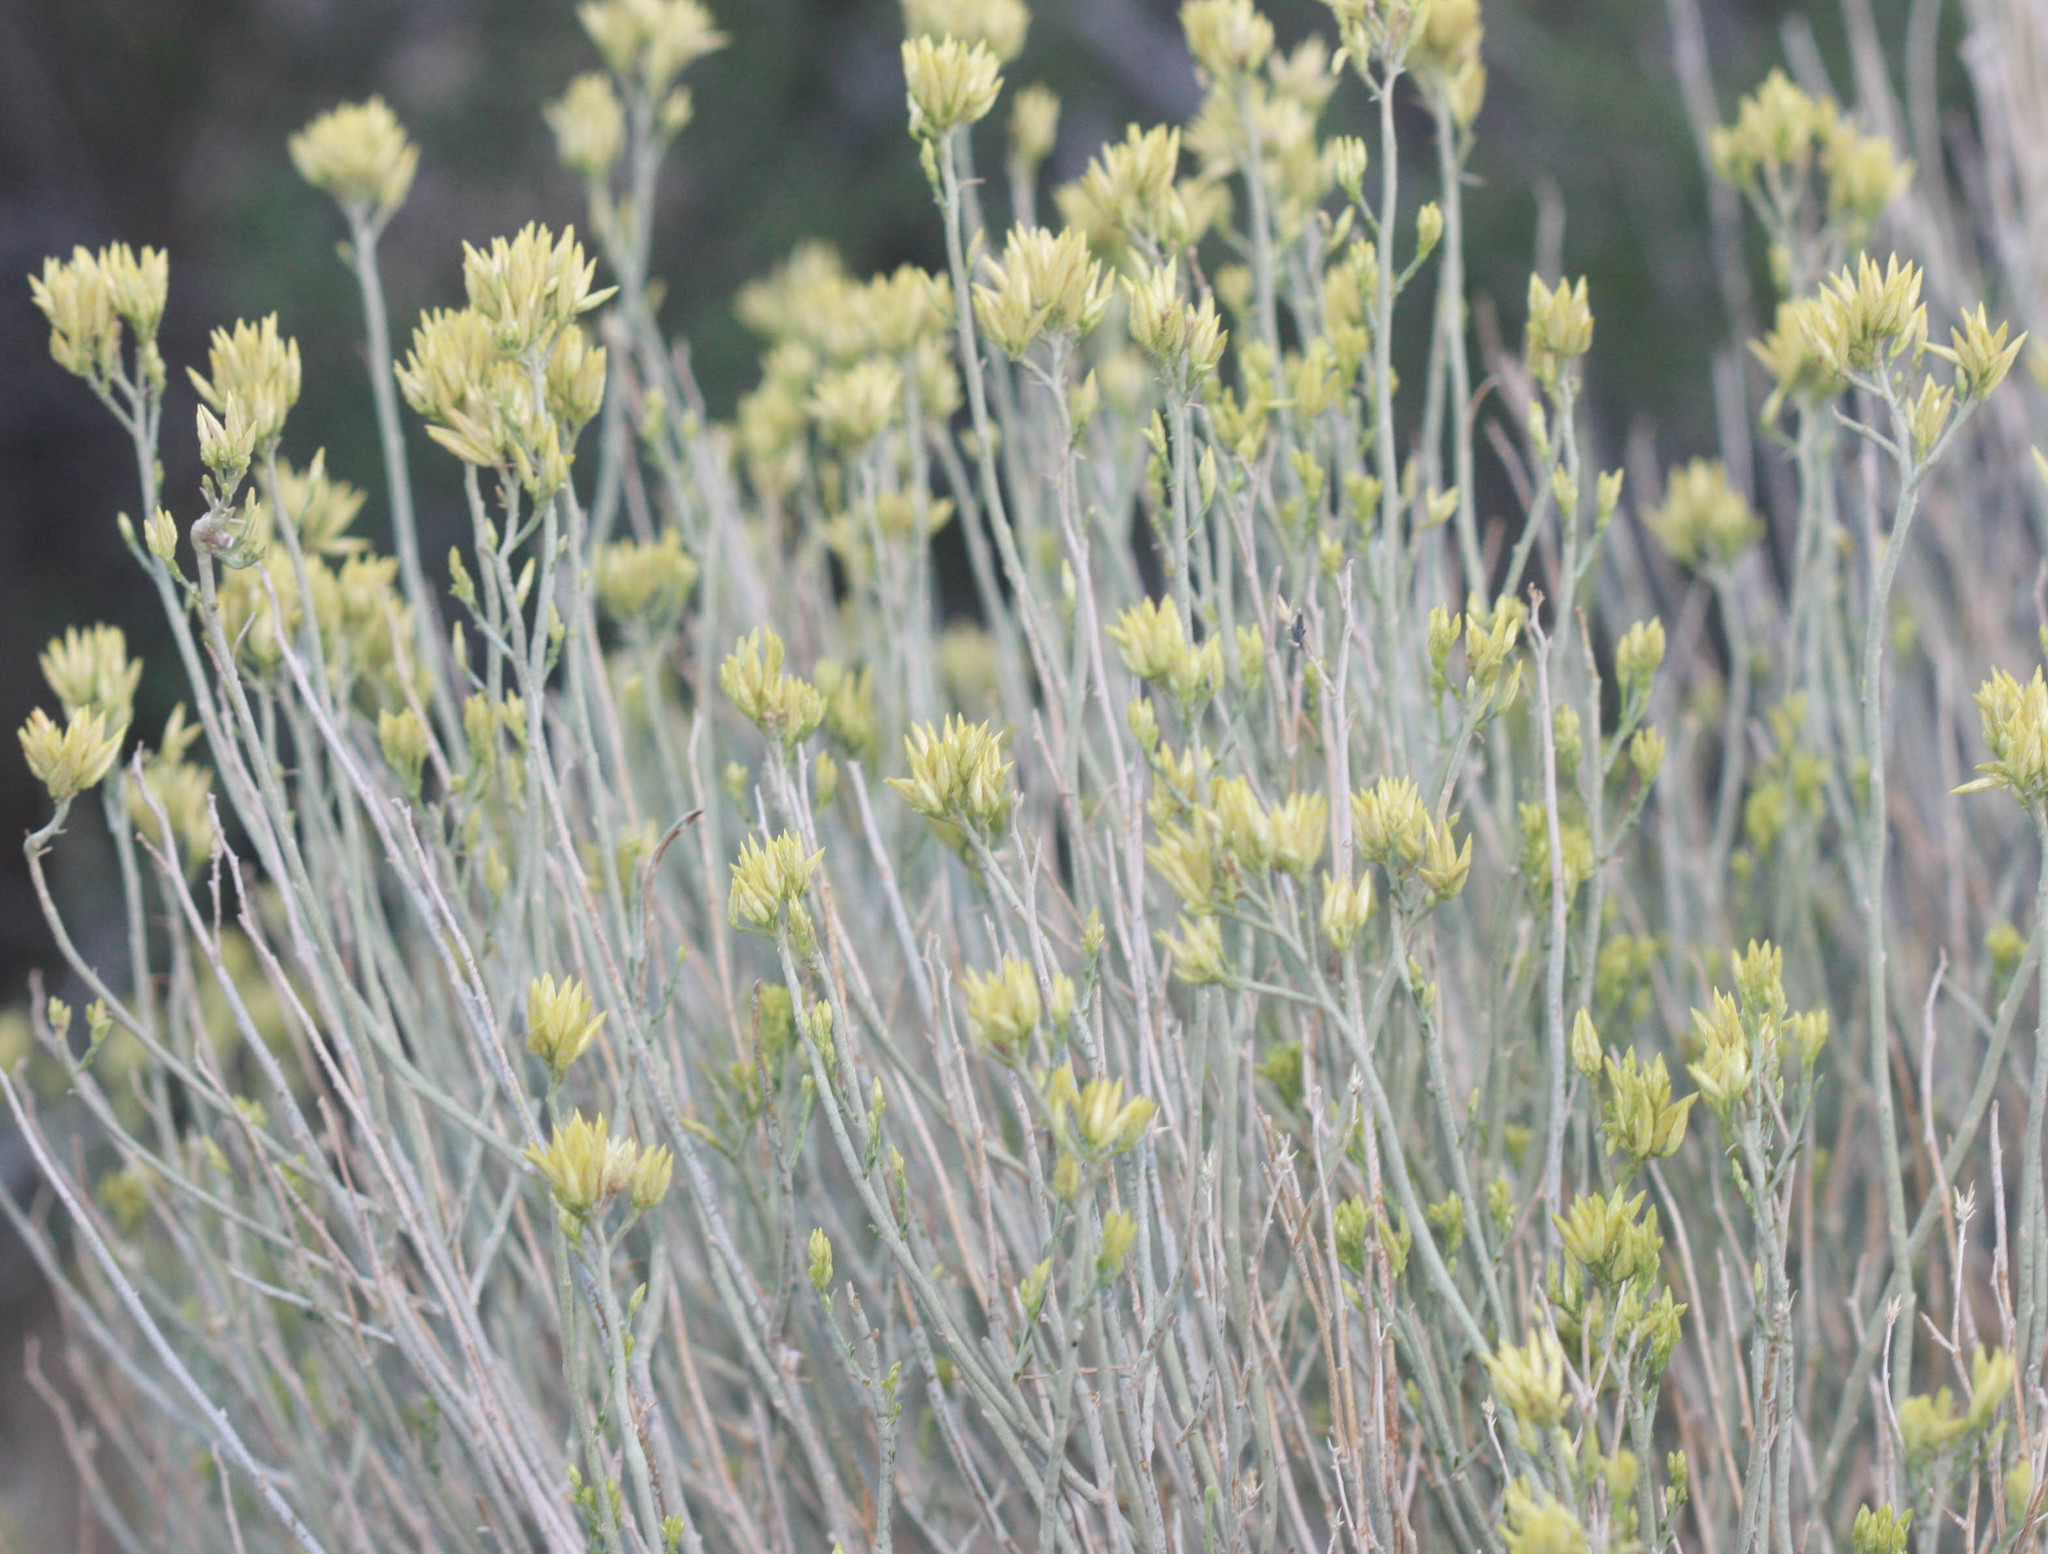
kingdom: Plantae
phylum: Tracheophyta
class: Magnoliopsida
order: Asterales
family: Asteraceae
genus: Ericameria
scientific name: Ericameria nauseosa
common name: Rubber rabbitbrush
